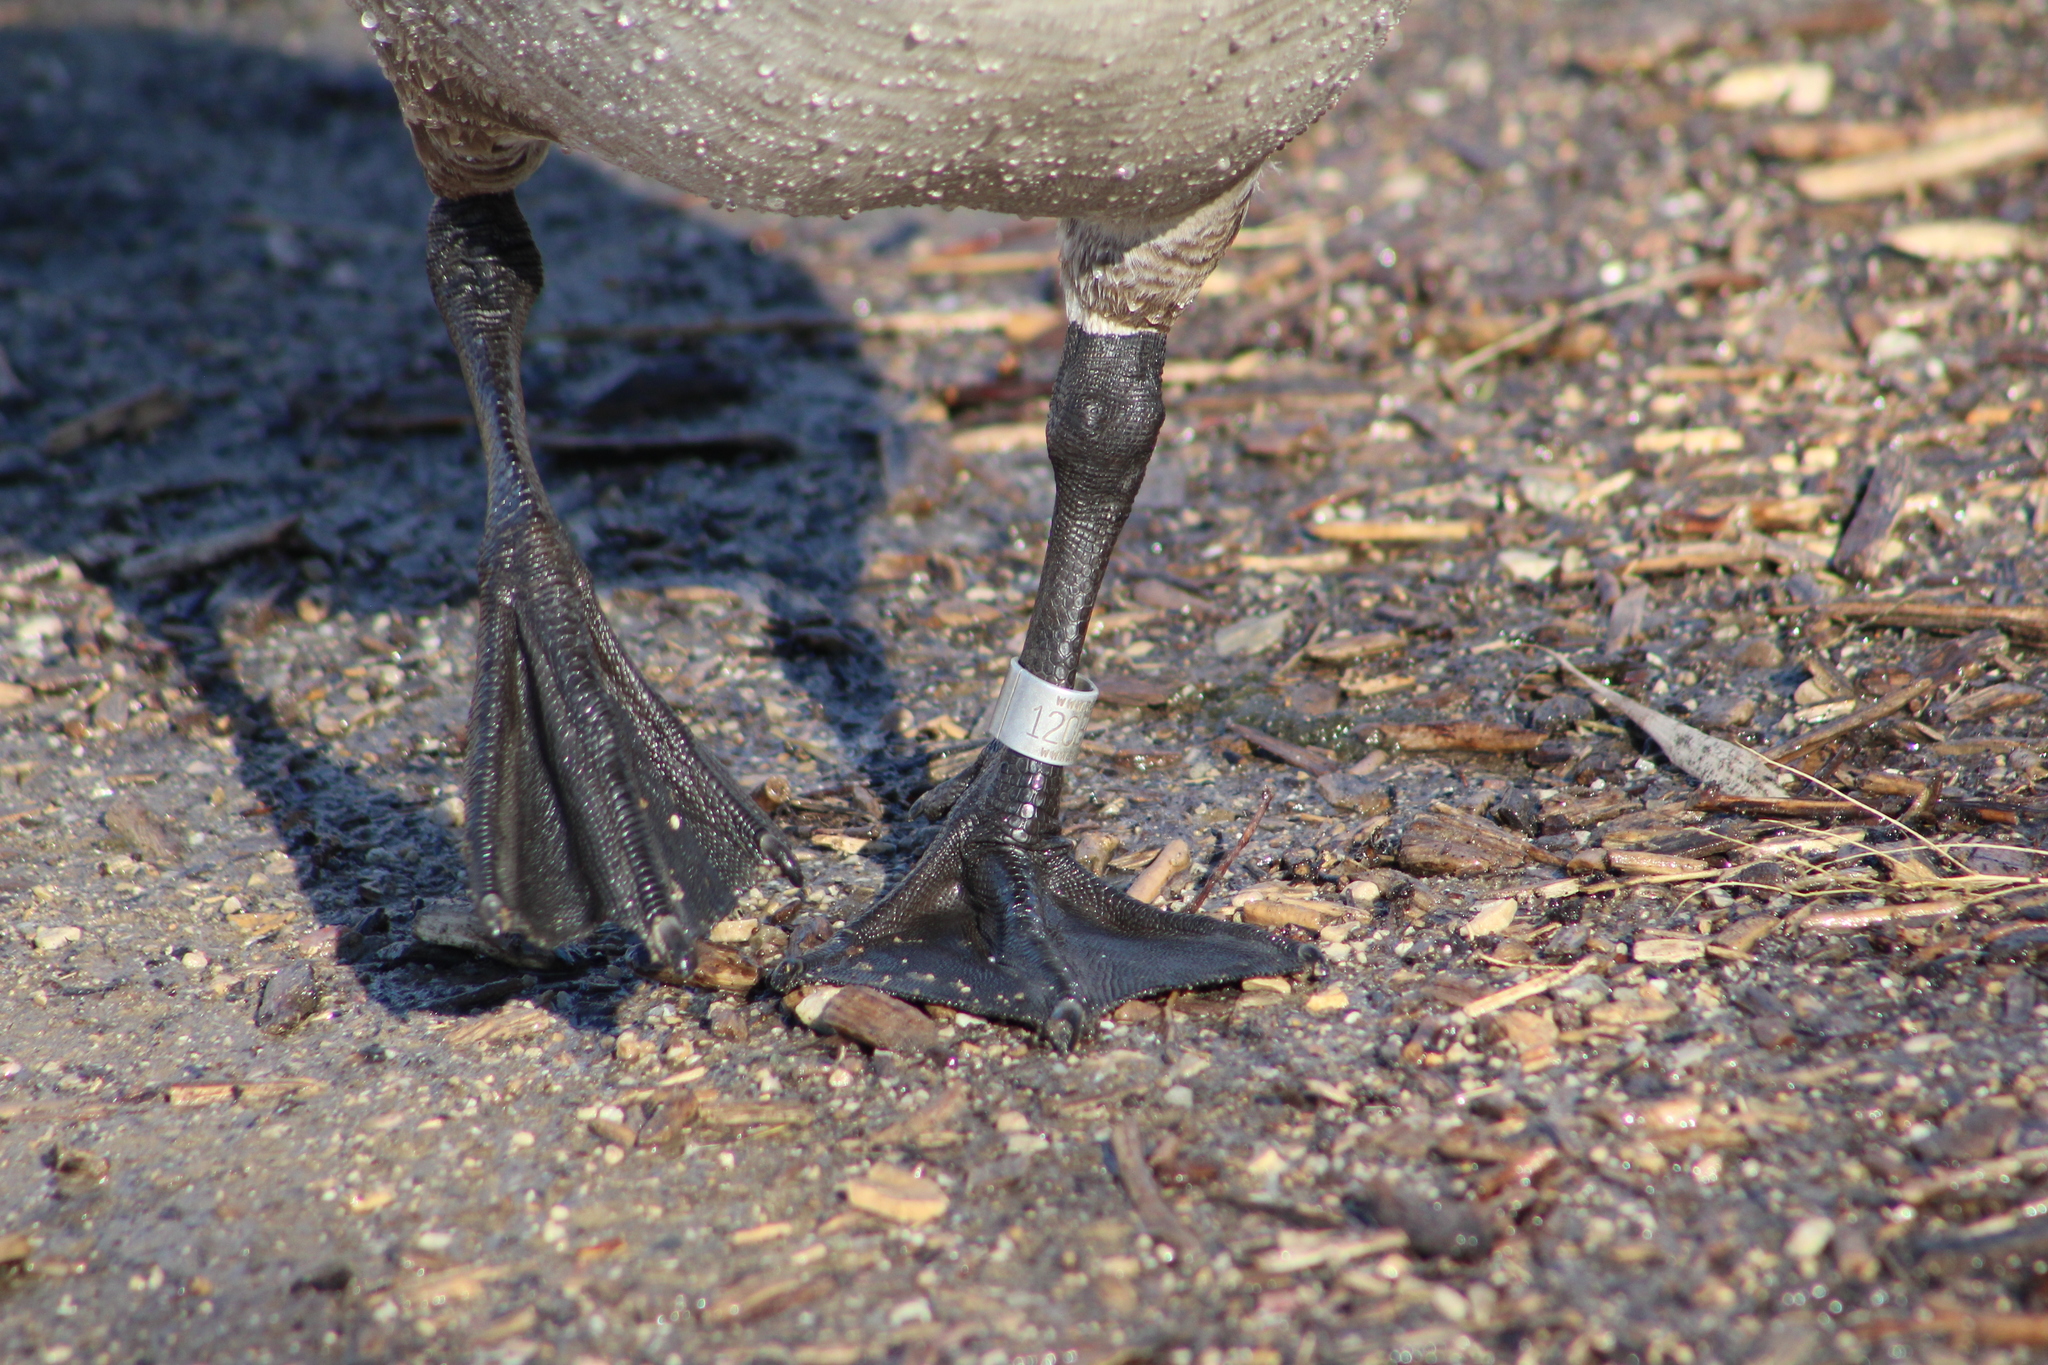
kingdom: Animalia
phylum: Chordata
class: Aves
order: Anseriformes
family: Anatidae
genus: Branta
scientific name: Branta canadensis
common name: Canada goose
